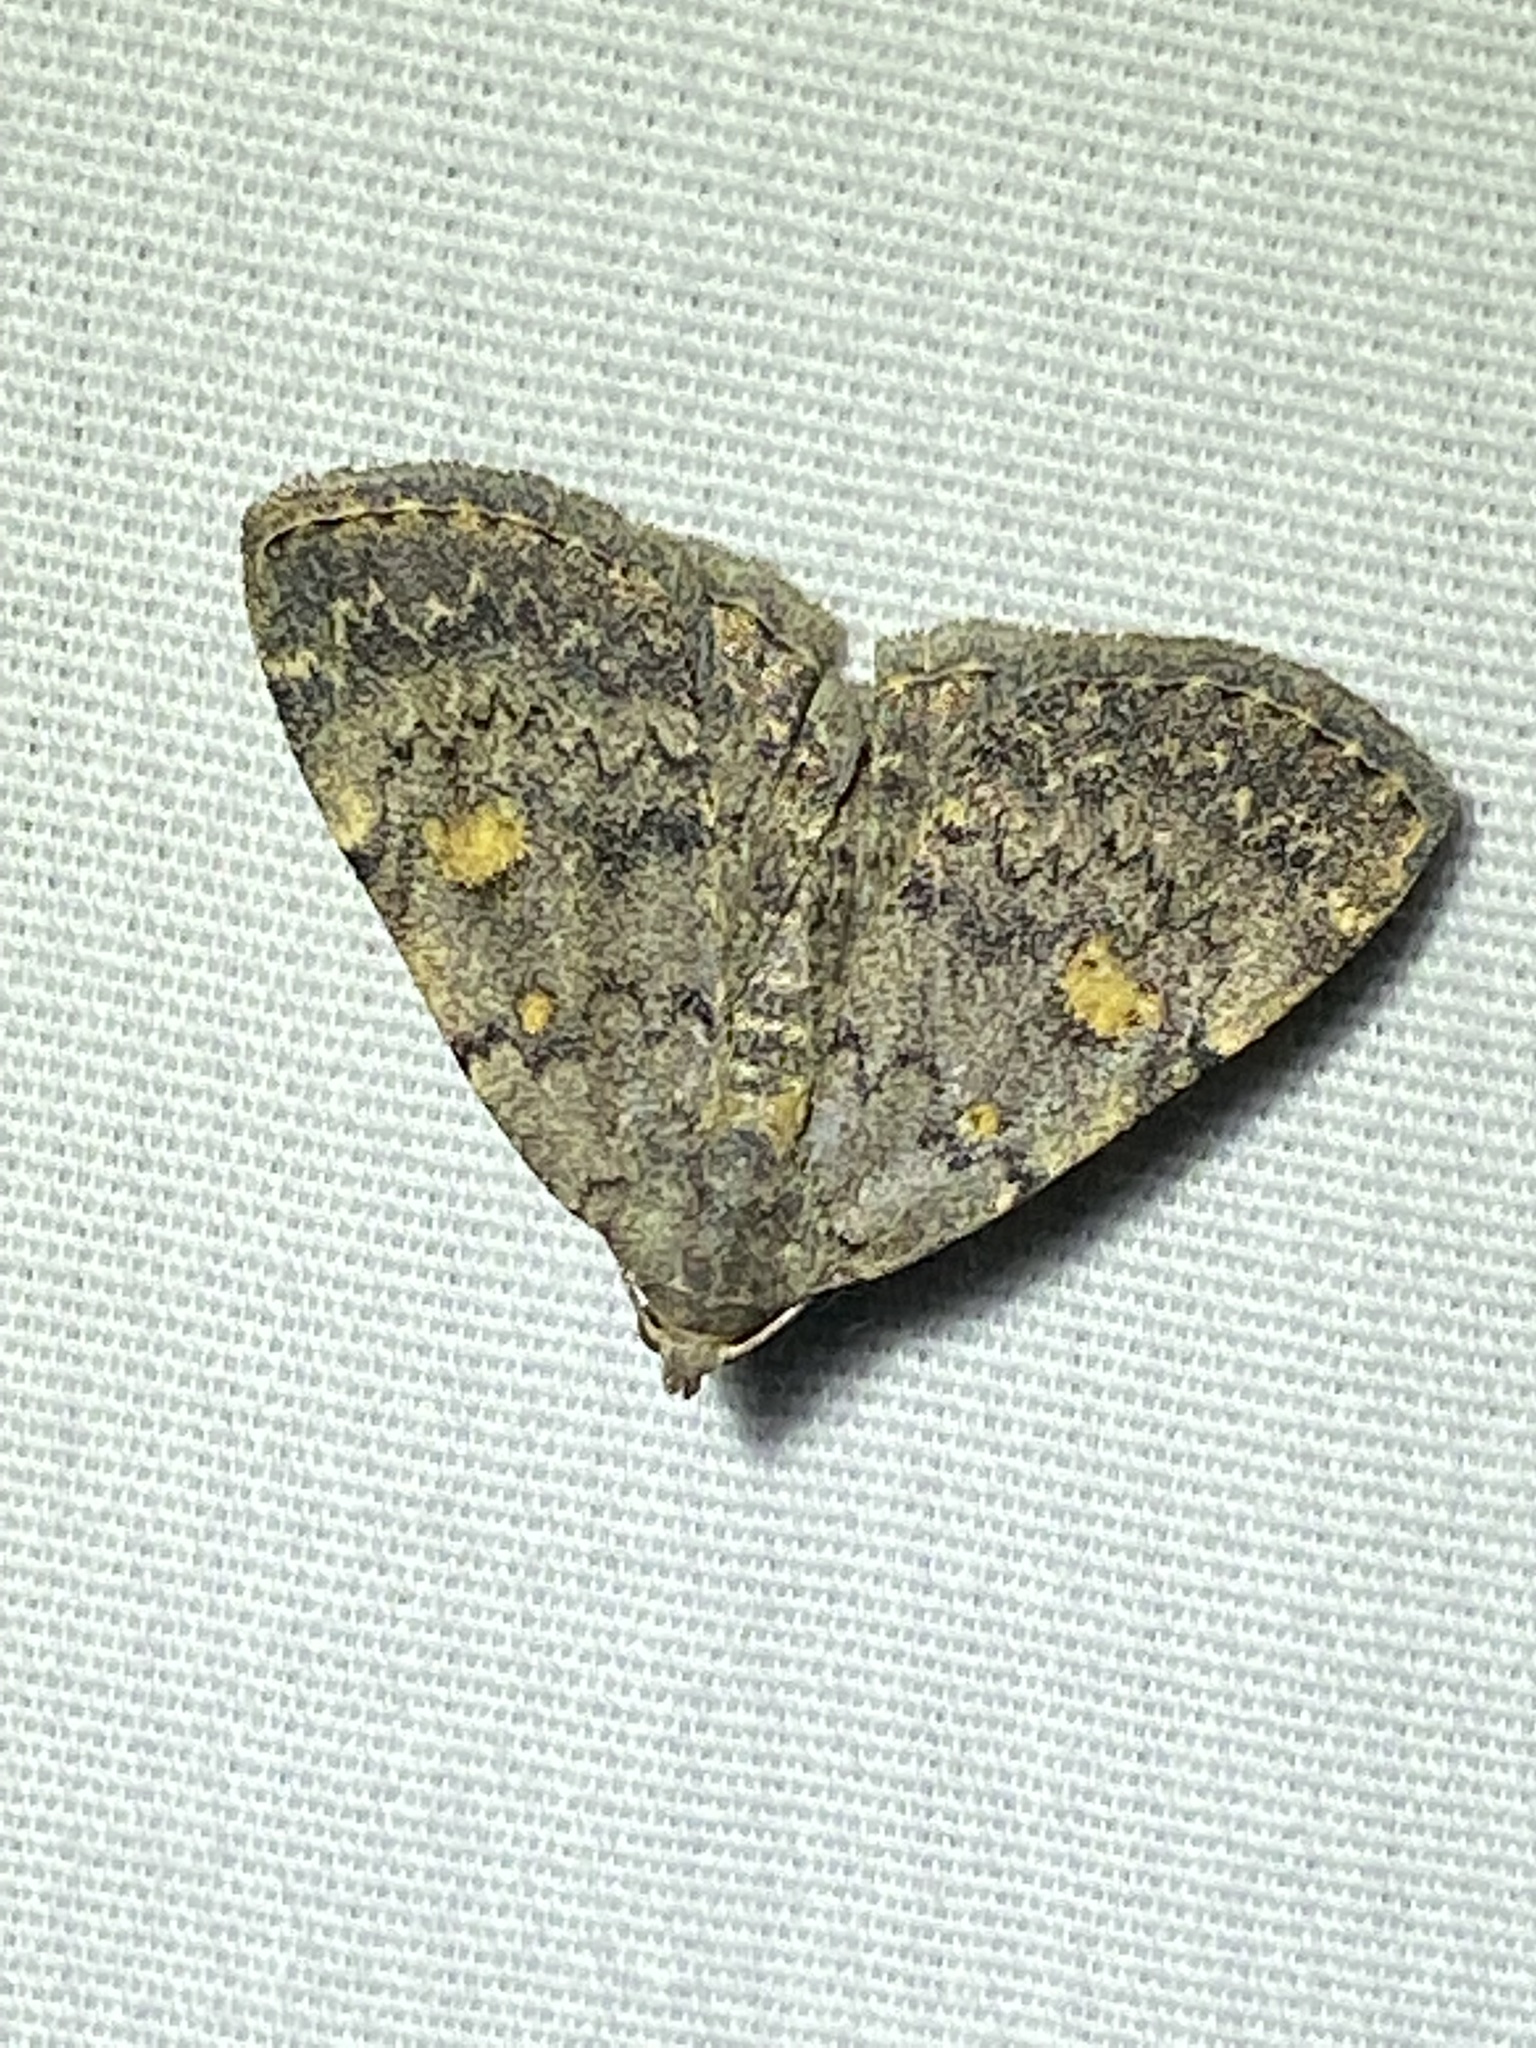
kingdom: Animalia
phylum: Arthropoda
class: Insecta
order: Lepidoptera
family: Erebidae
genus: Idia
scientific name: Idia aemula
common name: Common idia moth
